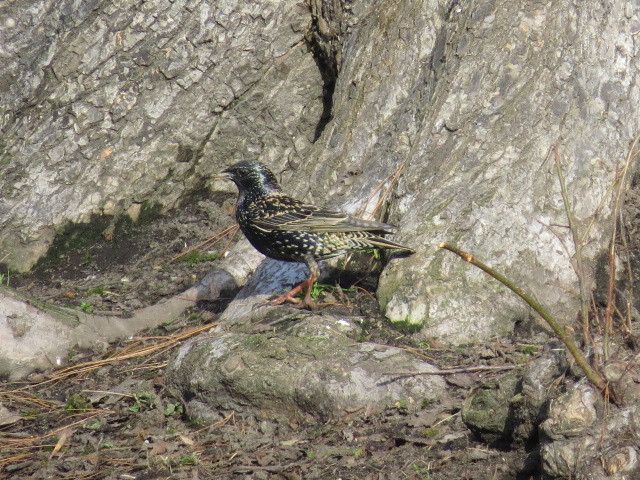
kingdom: Animalia
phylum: Chordata
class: Aves
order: Passeriformes
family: Sturnidae
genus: Sturnus
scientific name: Sturnus vulgaris
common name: Common starling
